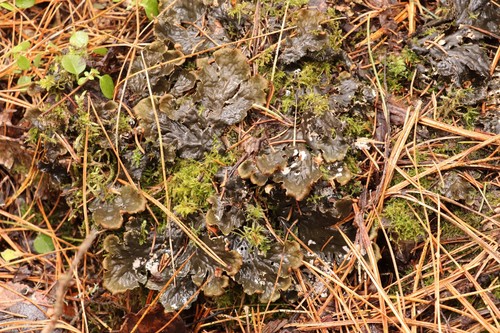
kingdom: Fungi
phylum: Ascomycota
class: Lecanoromycetes
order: Peltigerales
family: Peltigeraceae
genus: Peltigera
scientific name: Peltigera
